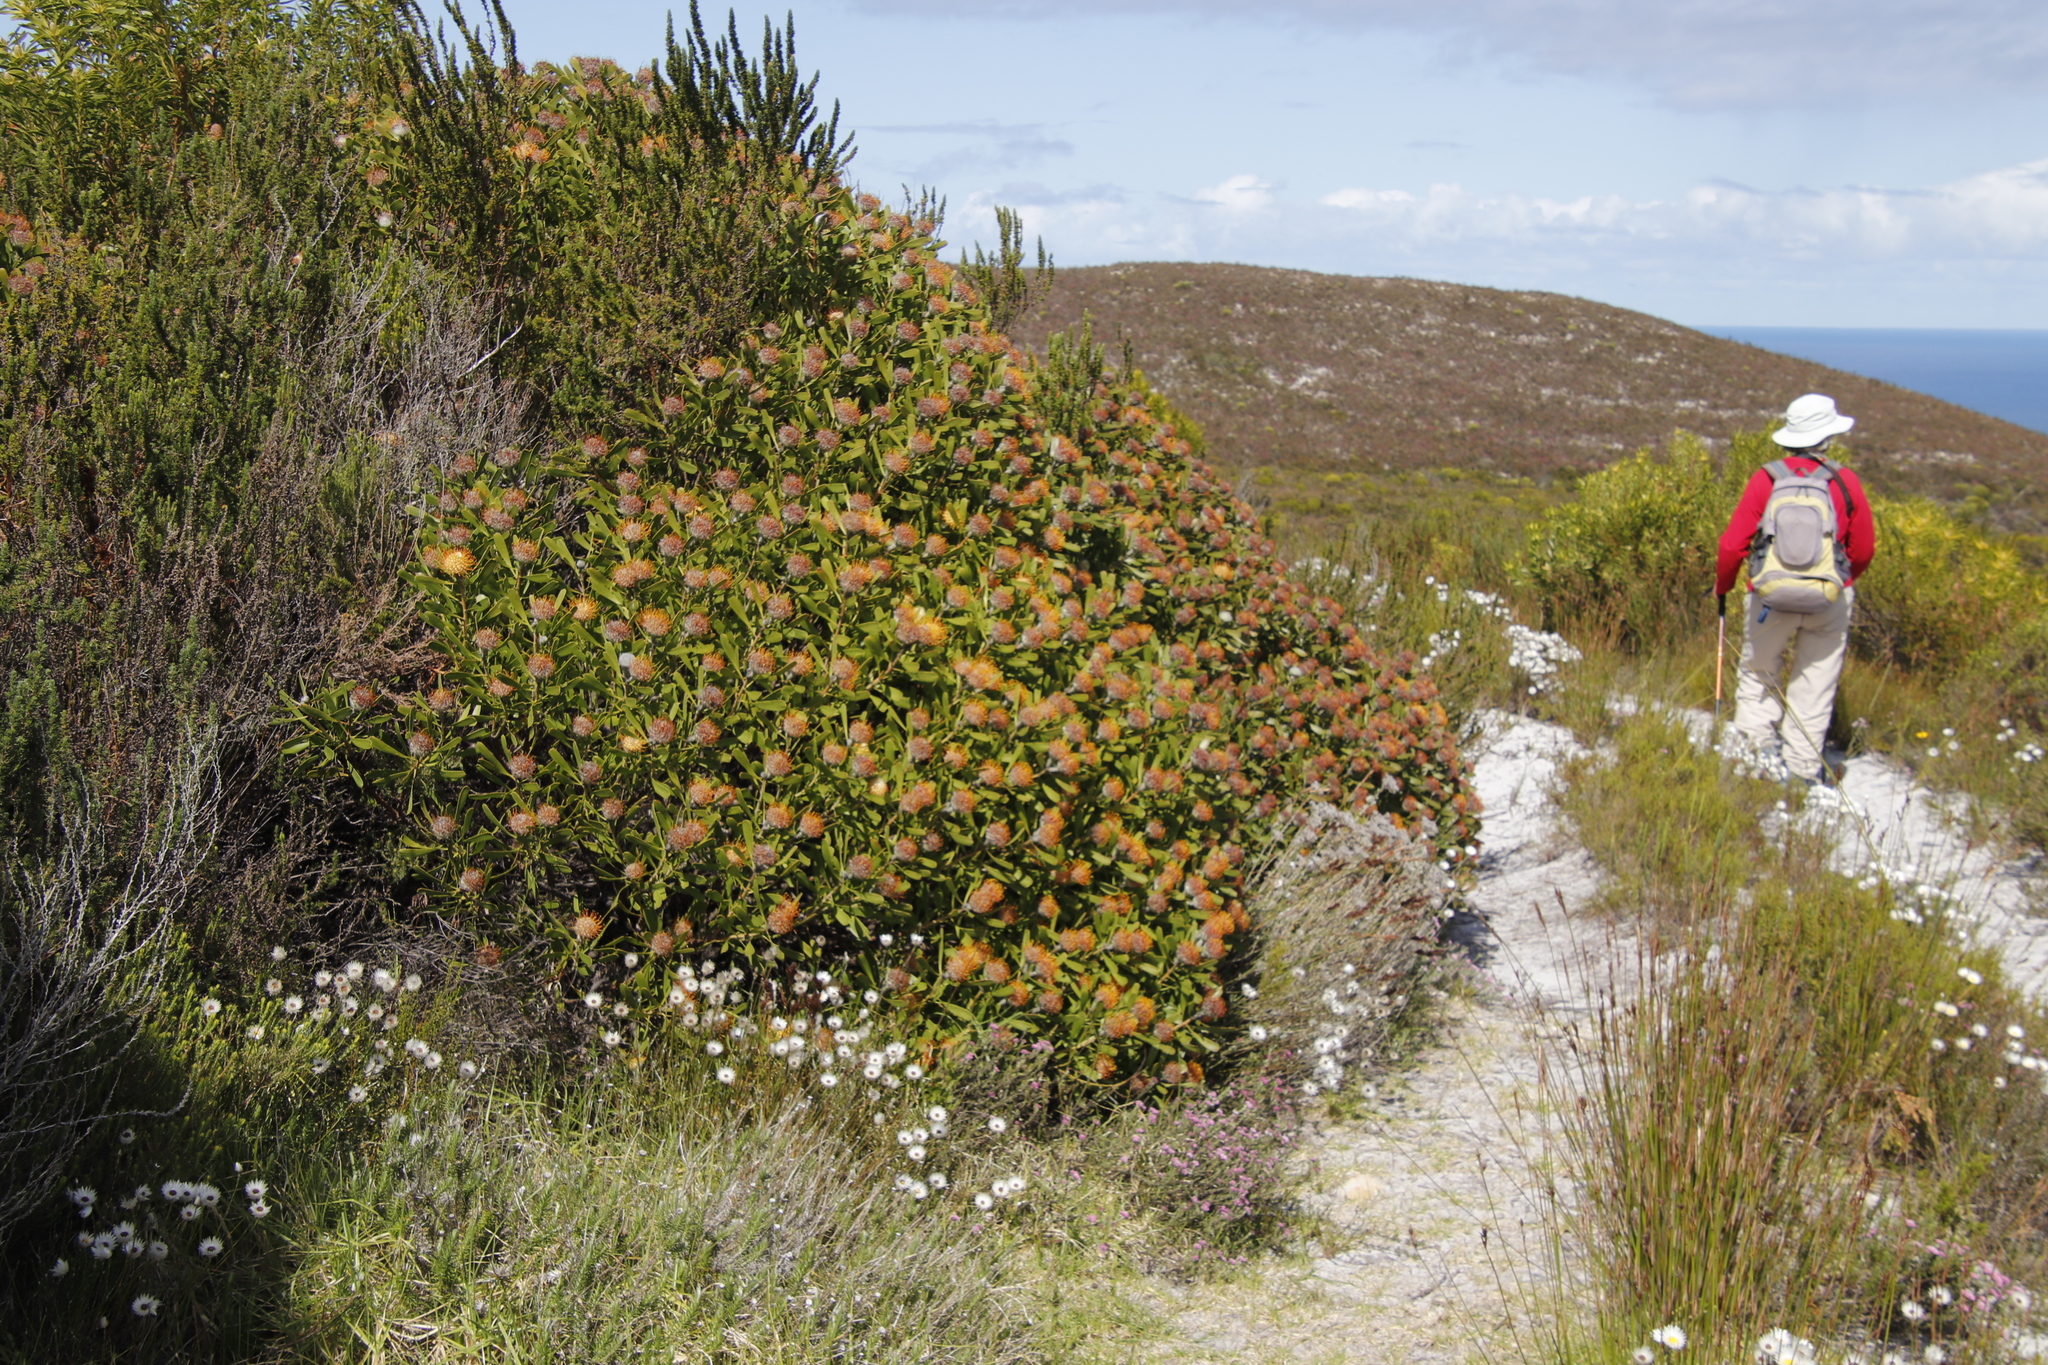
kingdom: Plantae
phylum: Tracheophyta
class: Magnoliopsida
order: Proteales
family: Proteaceae
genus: Leucospermum
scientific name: Leucospermum truncatum
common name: Limestone pincushion
